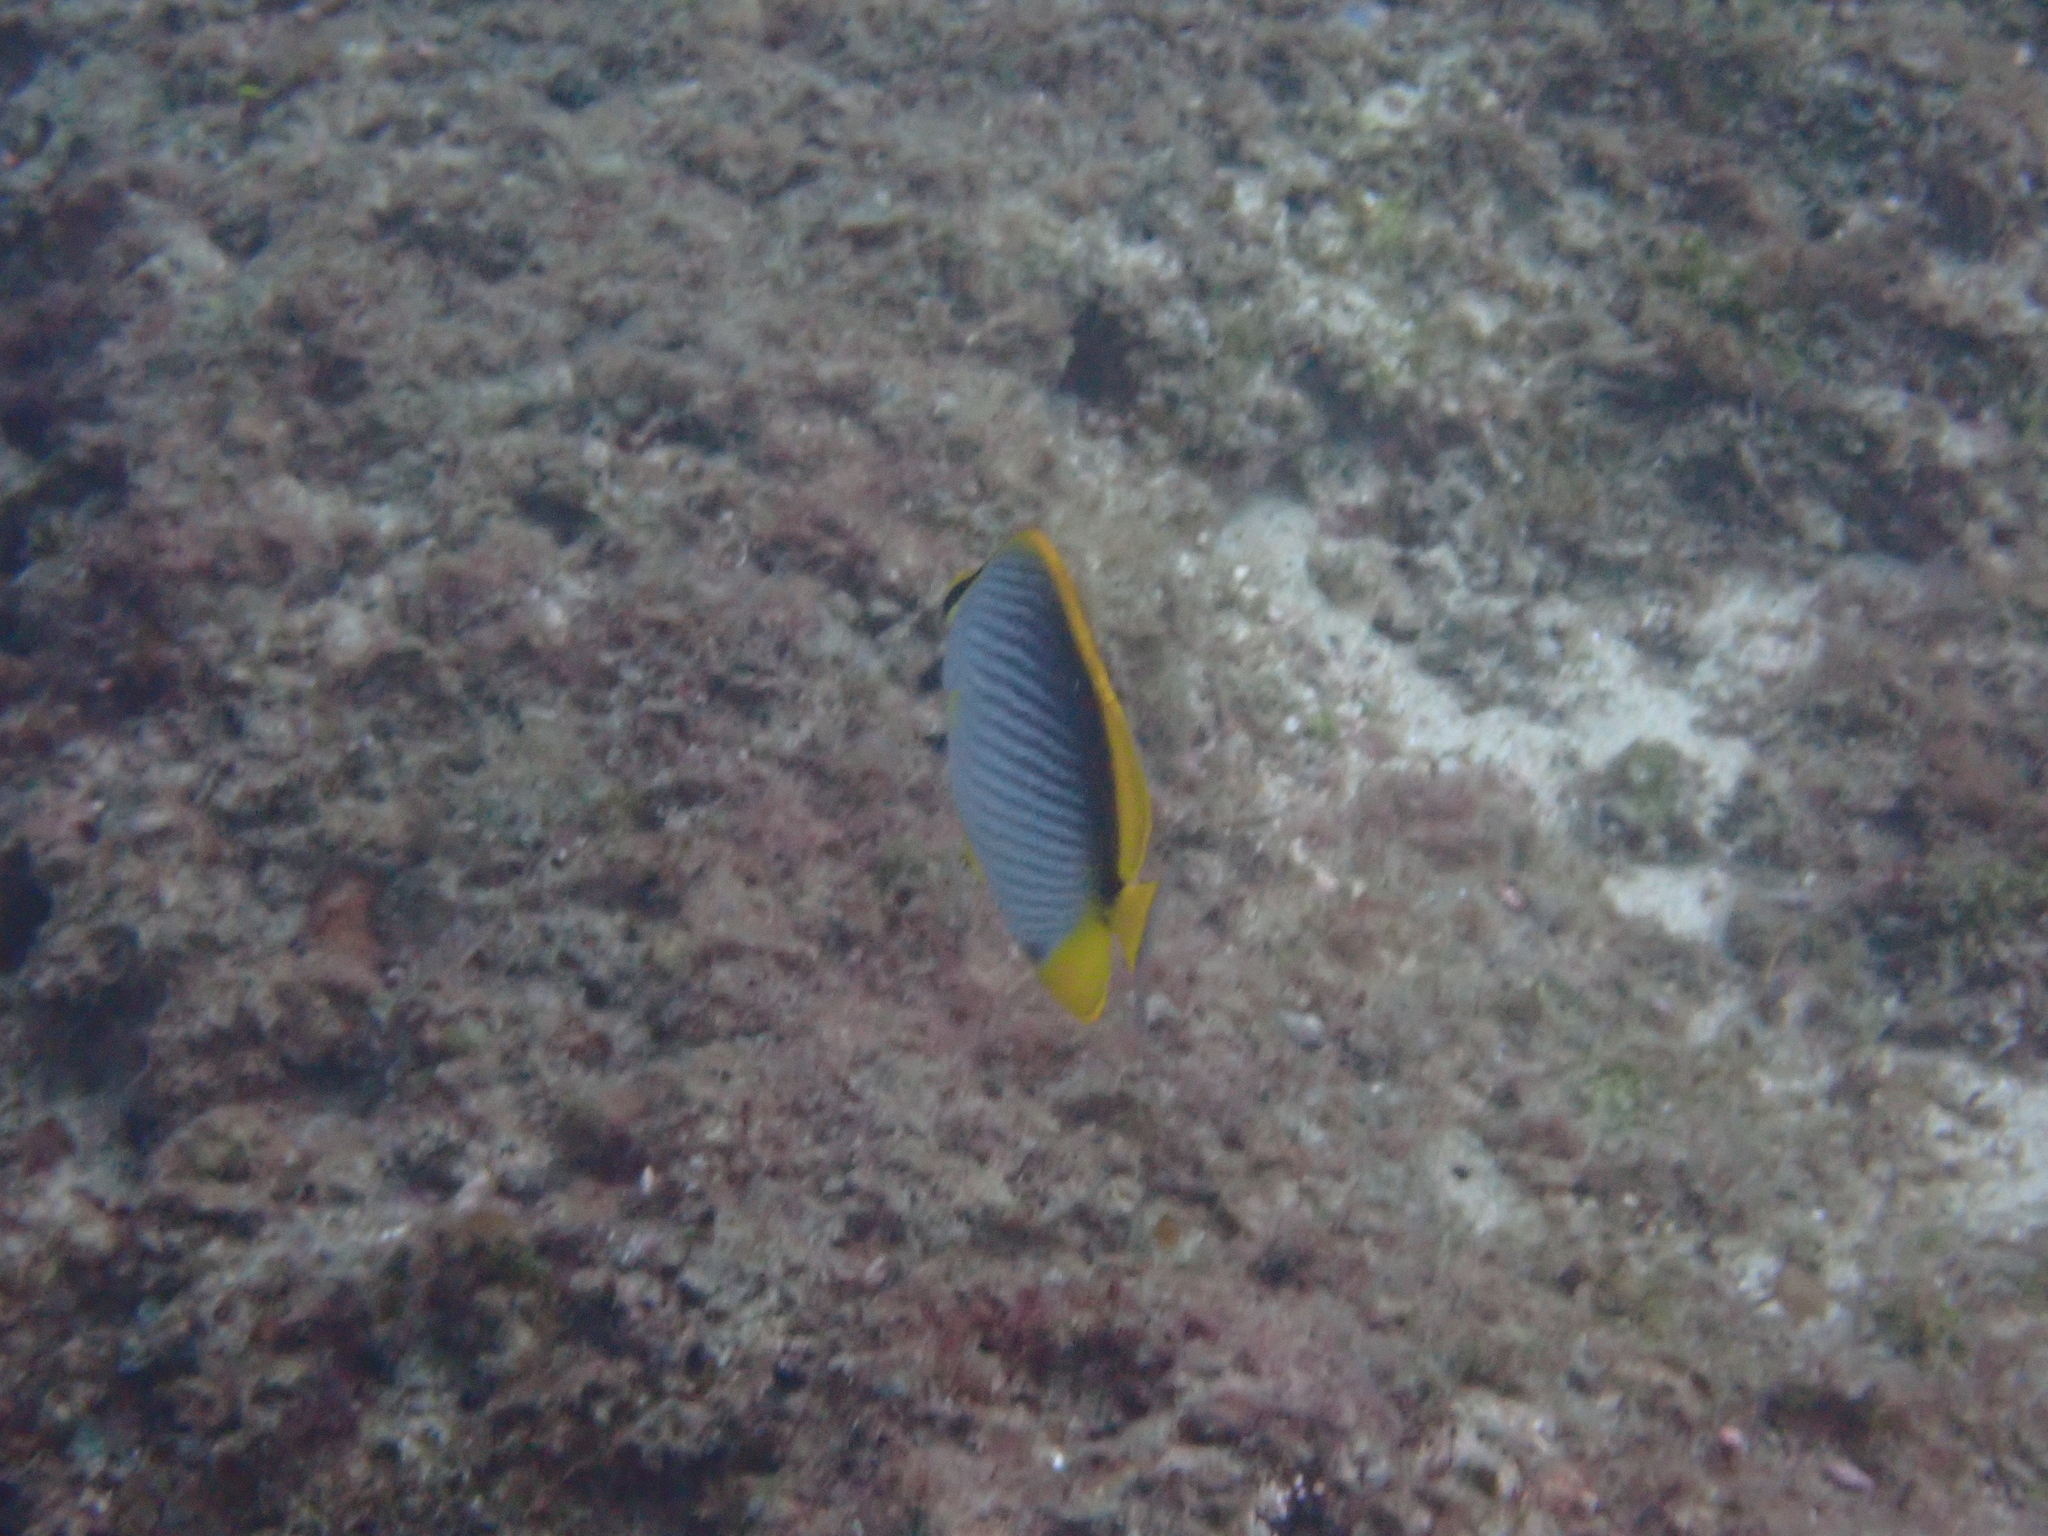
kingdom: Animalia
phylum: Chordata
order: Perciformes
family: Chaetodontidae
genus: Chaetodon
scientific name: Chaetodon melannotus
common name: Blackback butterflyfish
